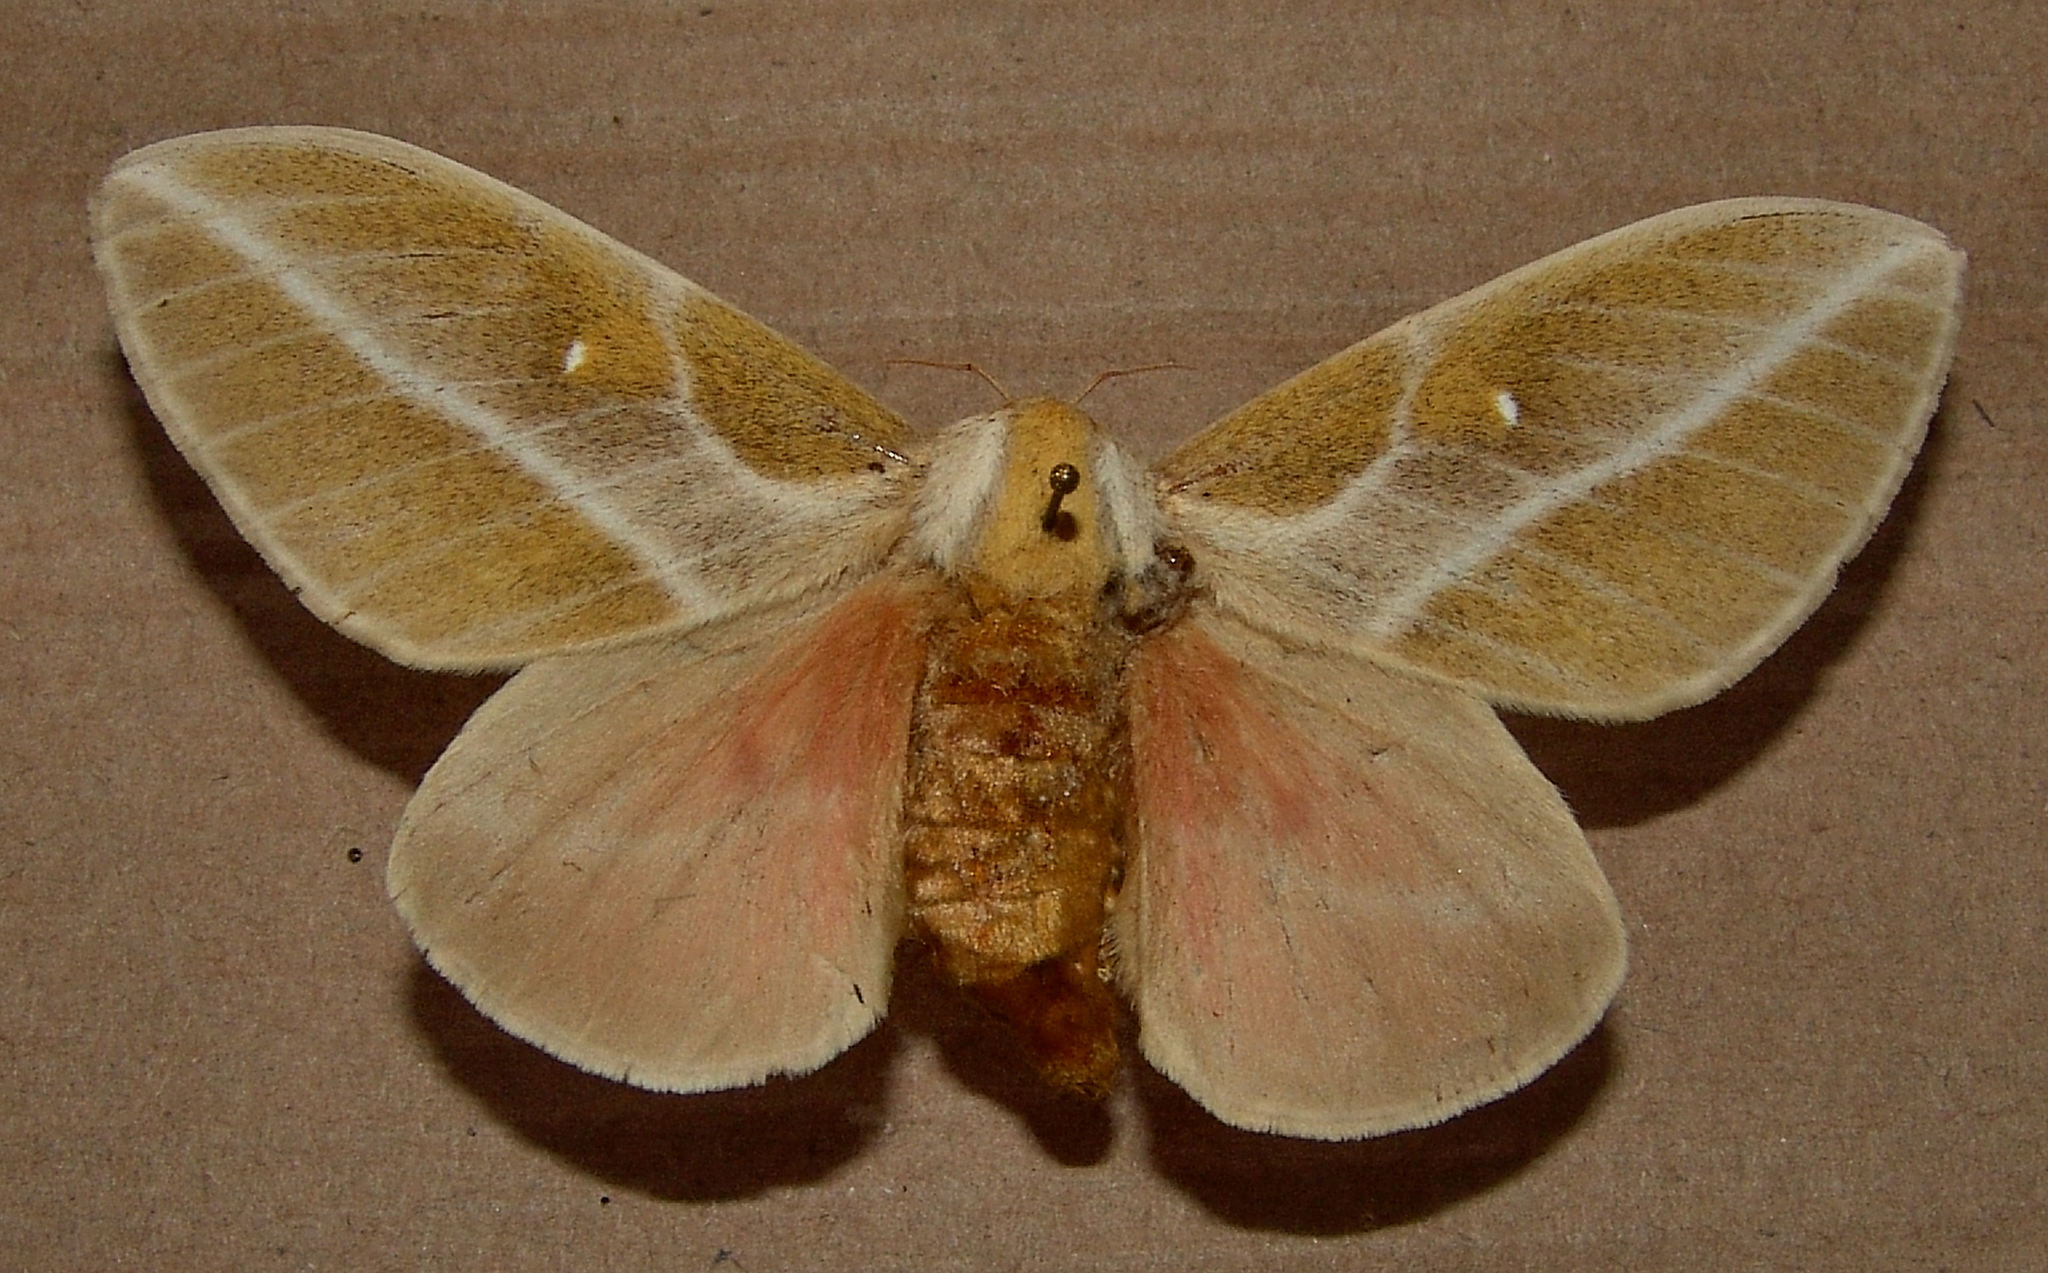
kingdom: Animalia
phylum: Arthropoda
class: Insecta
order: Lepidoptera
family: Saturniidae
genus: Syssphinx
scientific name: Syssphinx raspa
